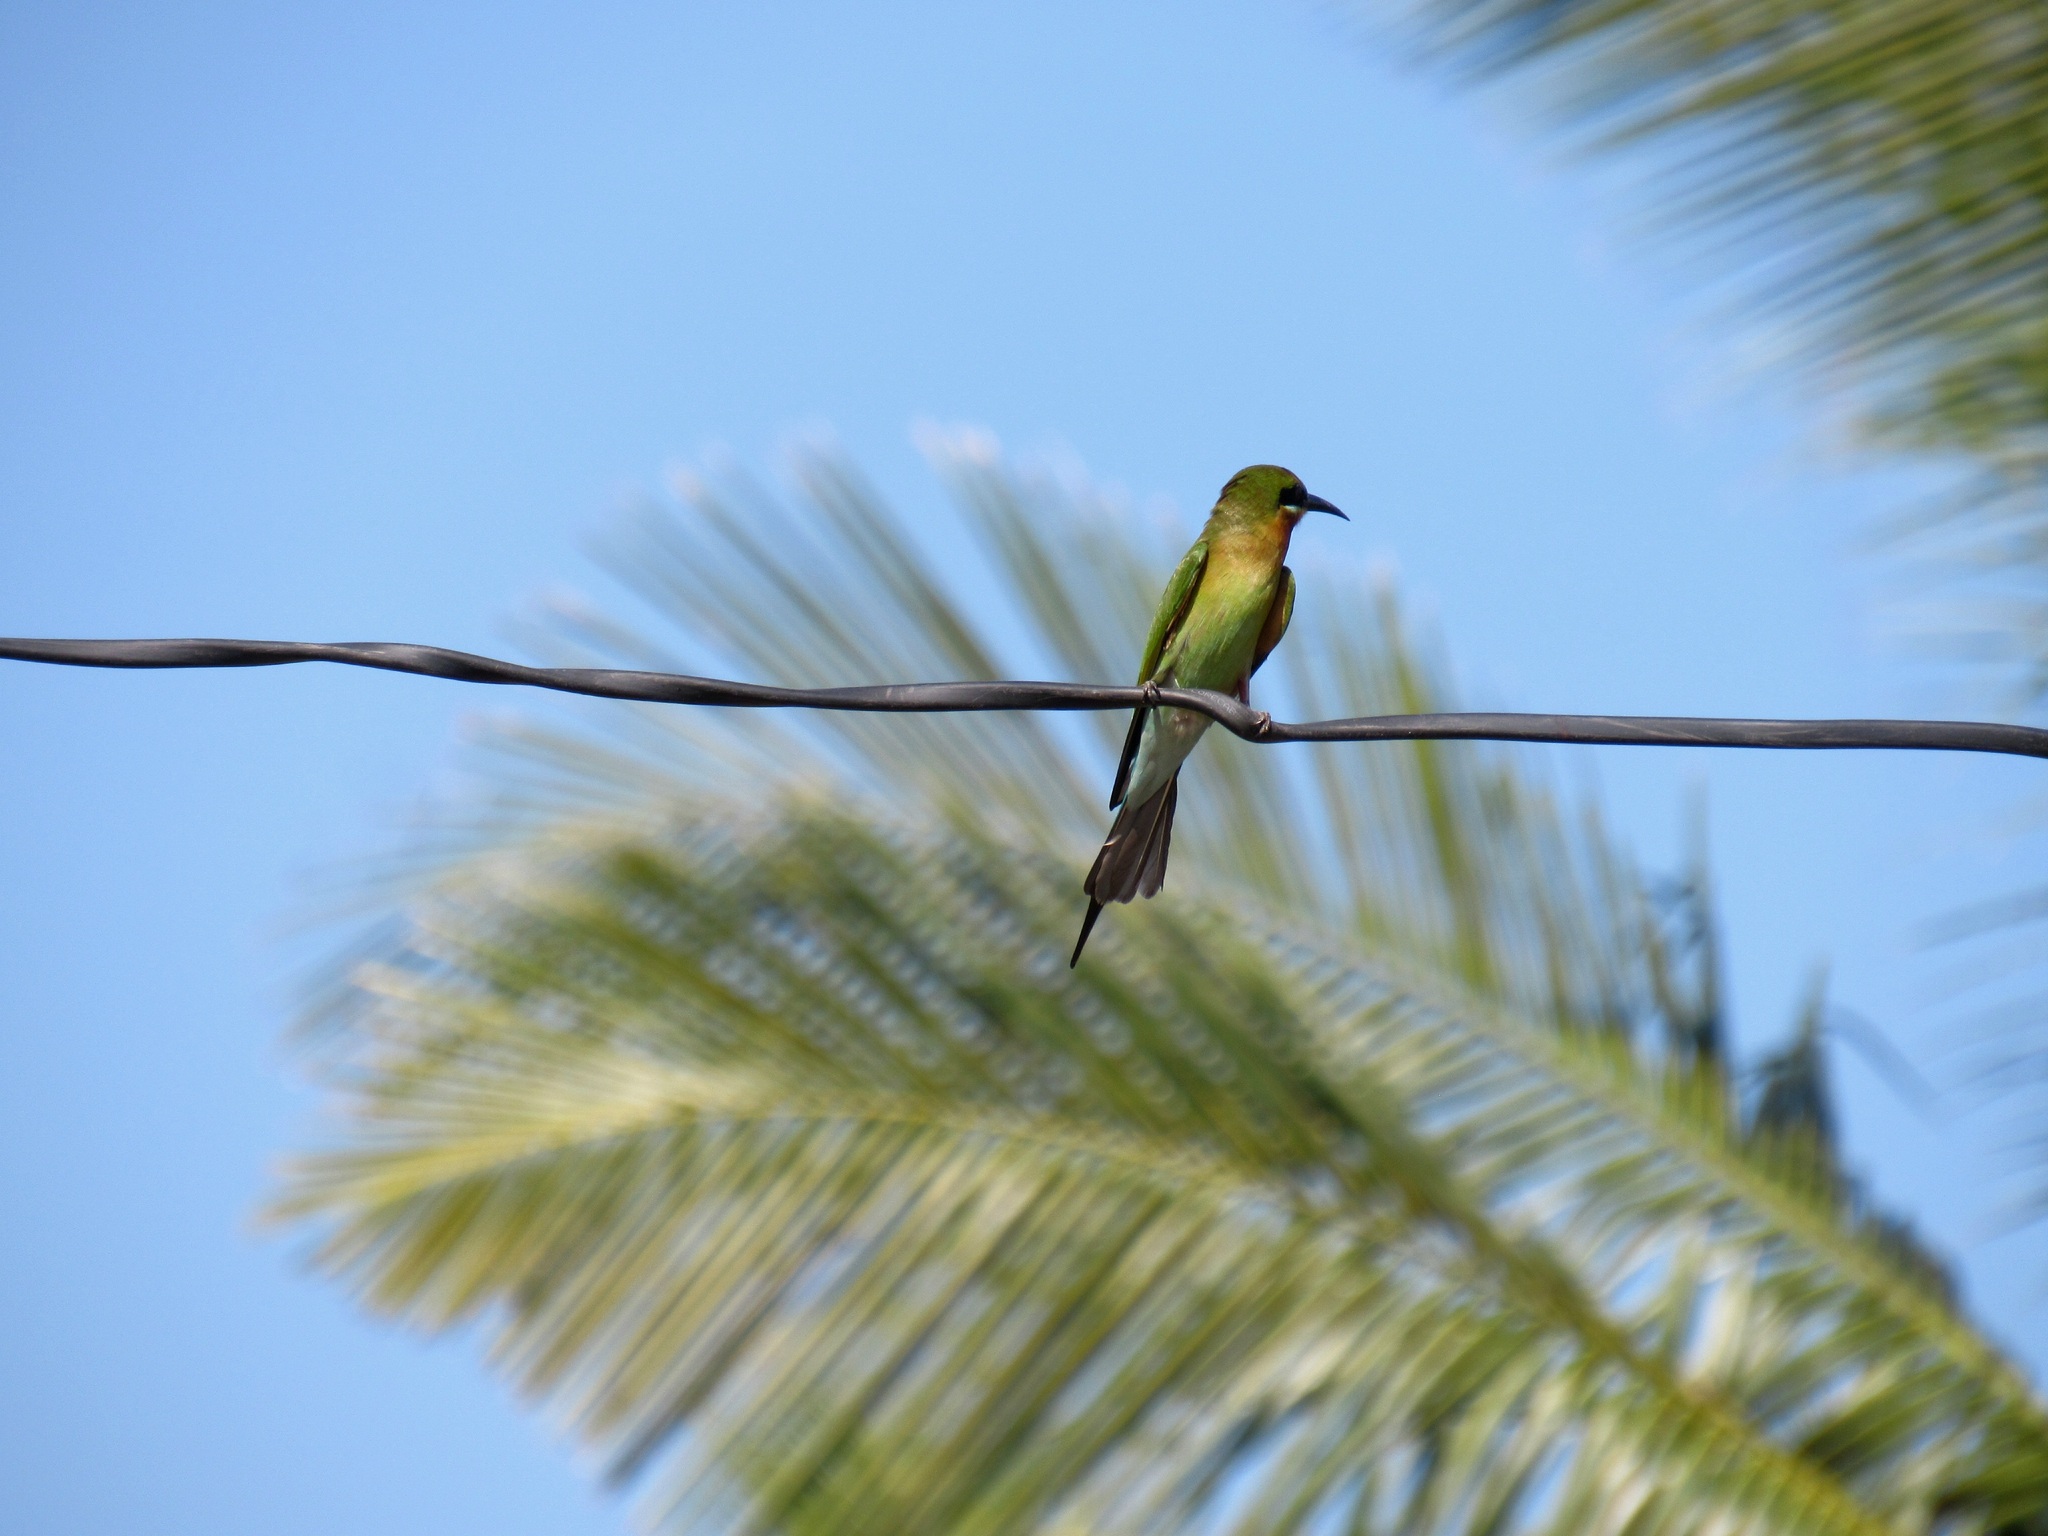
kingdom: Animalia
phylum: Chordata
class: Aves
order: Coraciiformes
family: Meropidae
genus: Merops
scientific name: Merops philippinus
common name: Blue-tailed bee-eater
